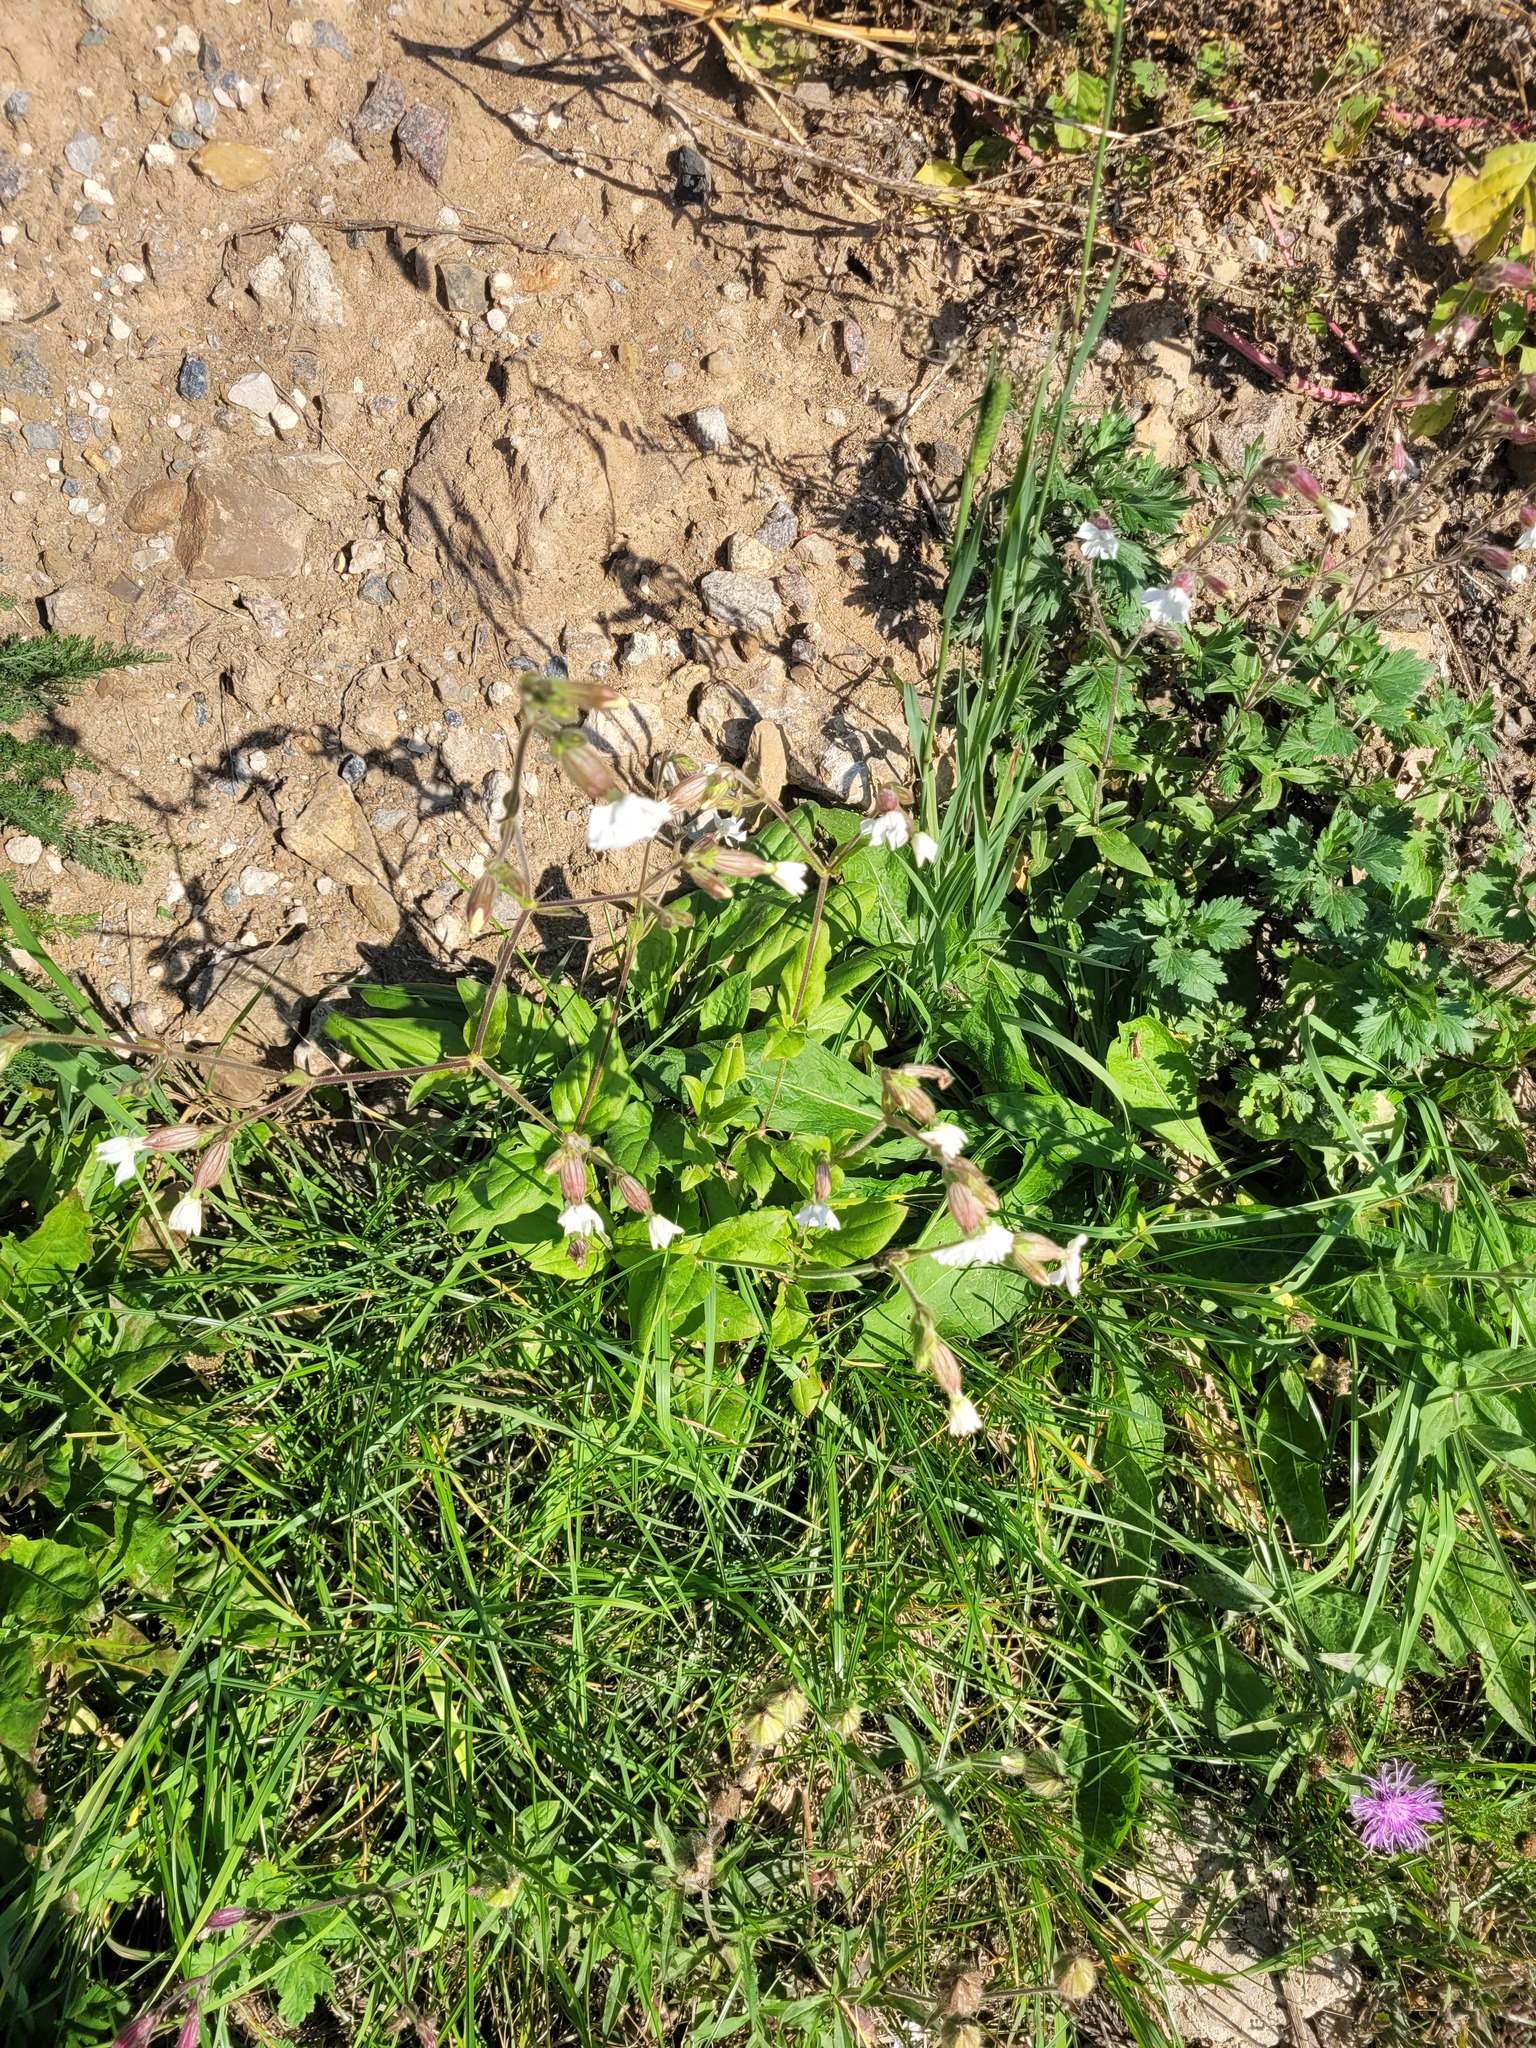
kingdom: Plantae
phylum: Tracheophyta
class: Magnoliopsida
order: Caryophyllales
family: Caryophyllaceae
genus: Silene
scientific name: Silene latifolia
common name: White campion
